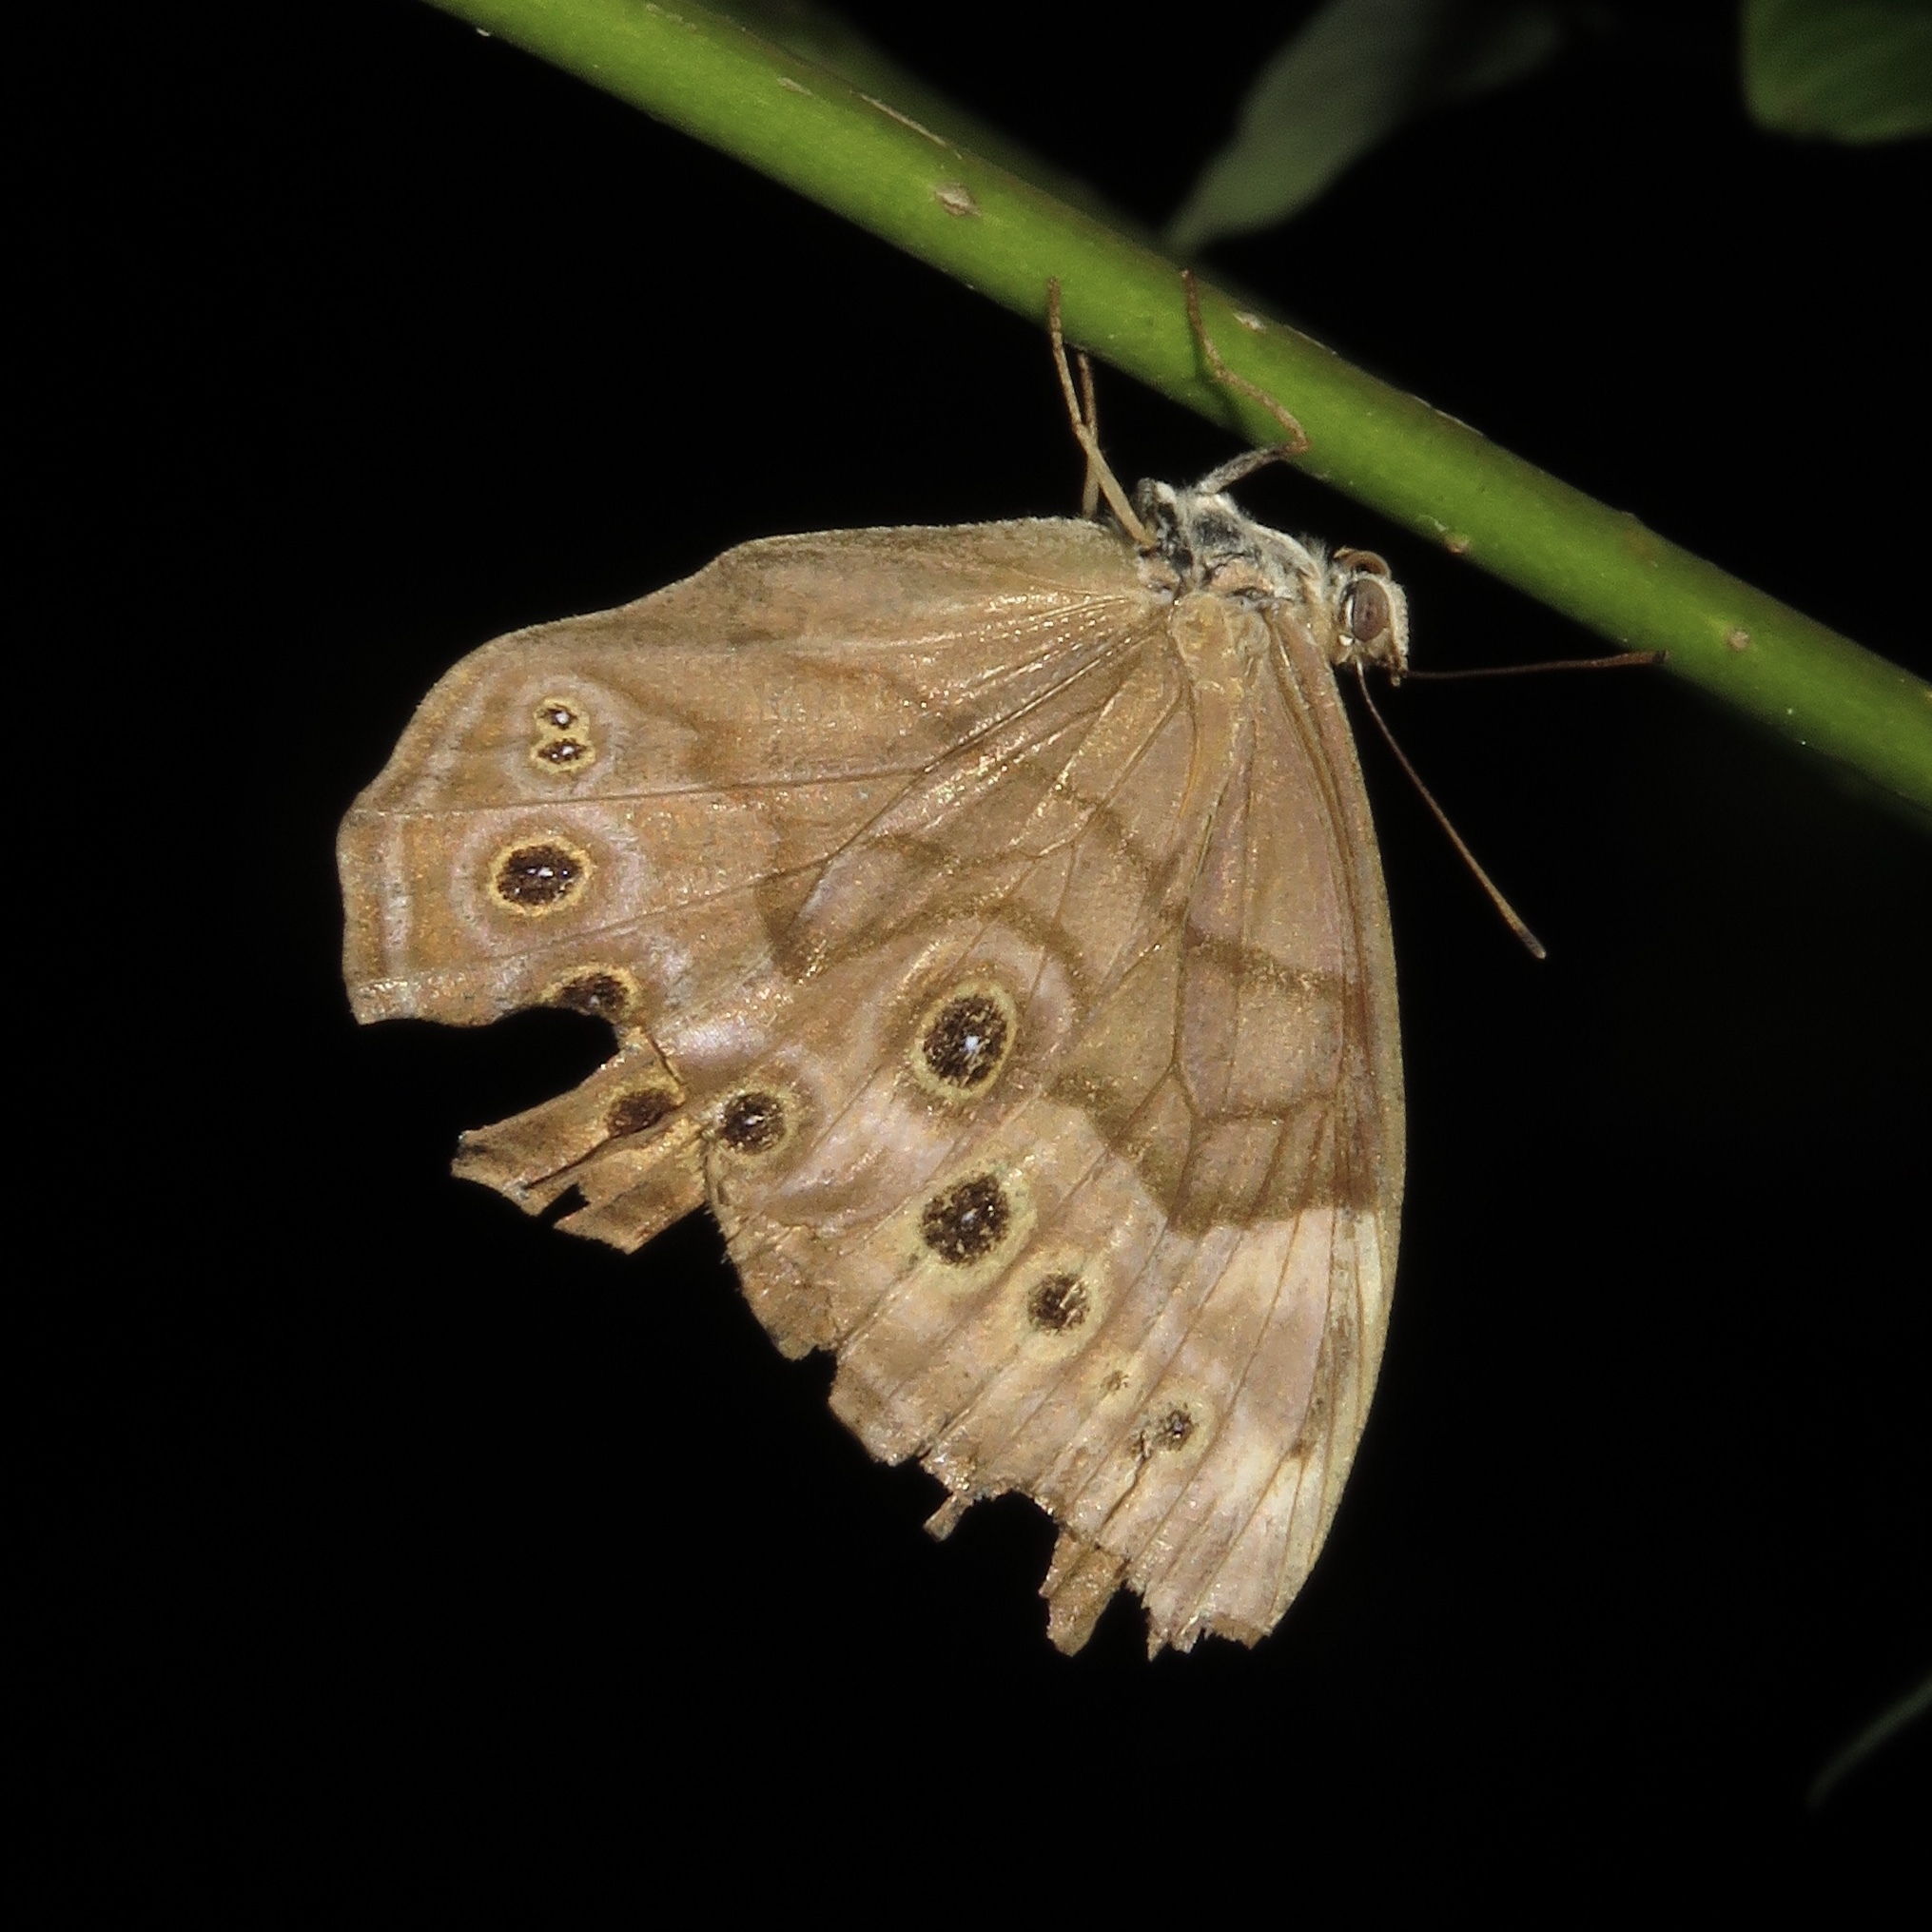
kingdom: Animalia
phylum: Arthropoda
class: Insecta
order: Lepidoptera
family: Nymphalidae
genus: Lethe
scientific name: Lethe anthedon
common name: Northern pearly-eye
